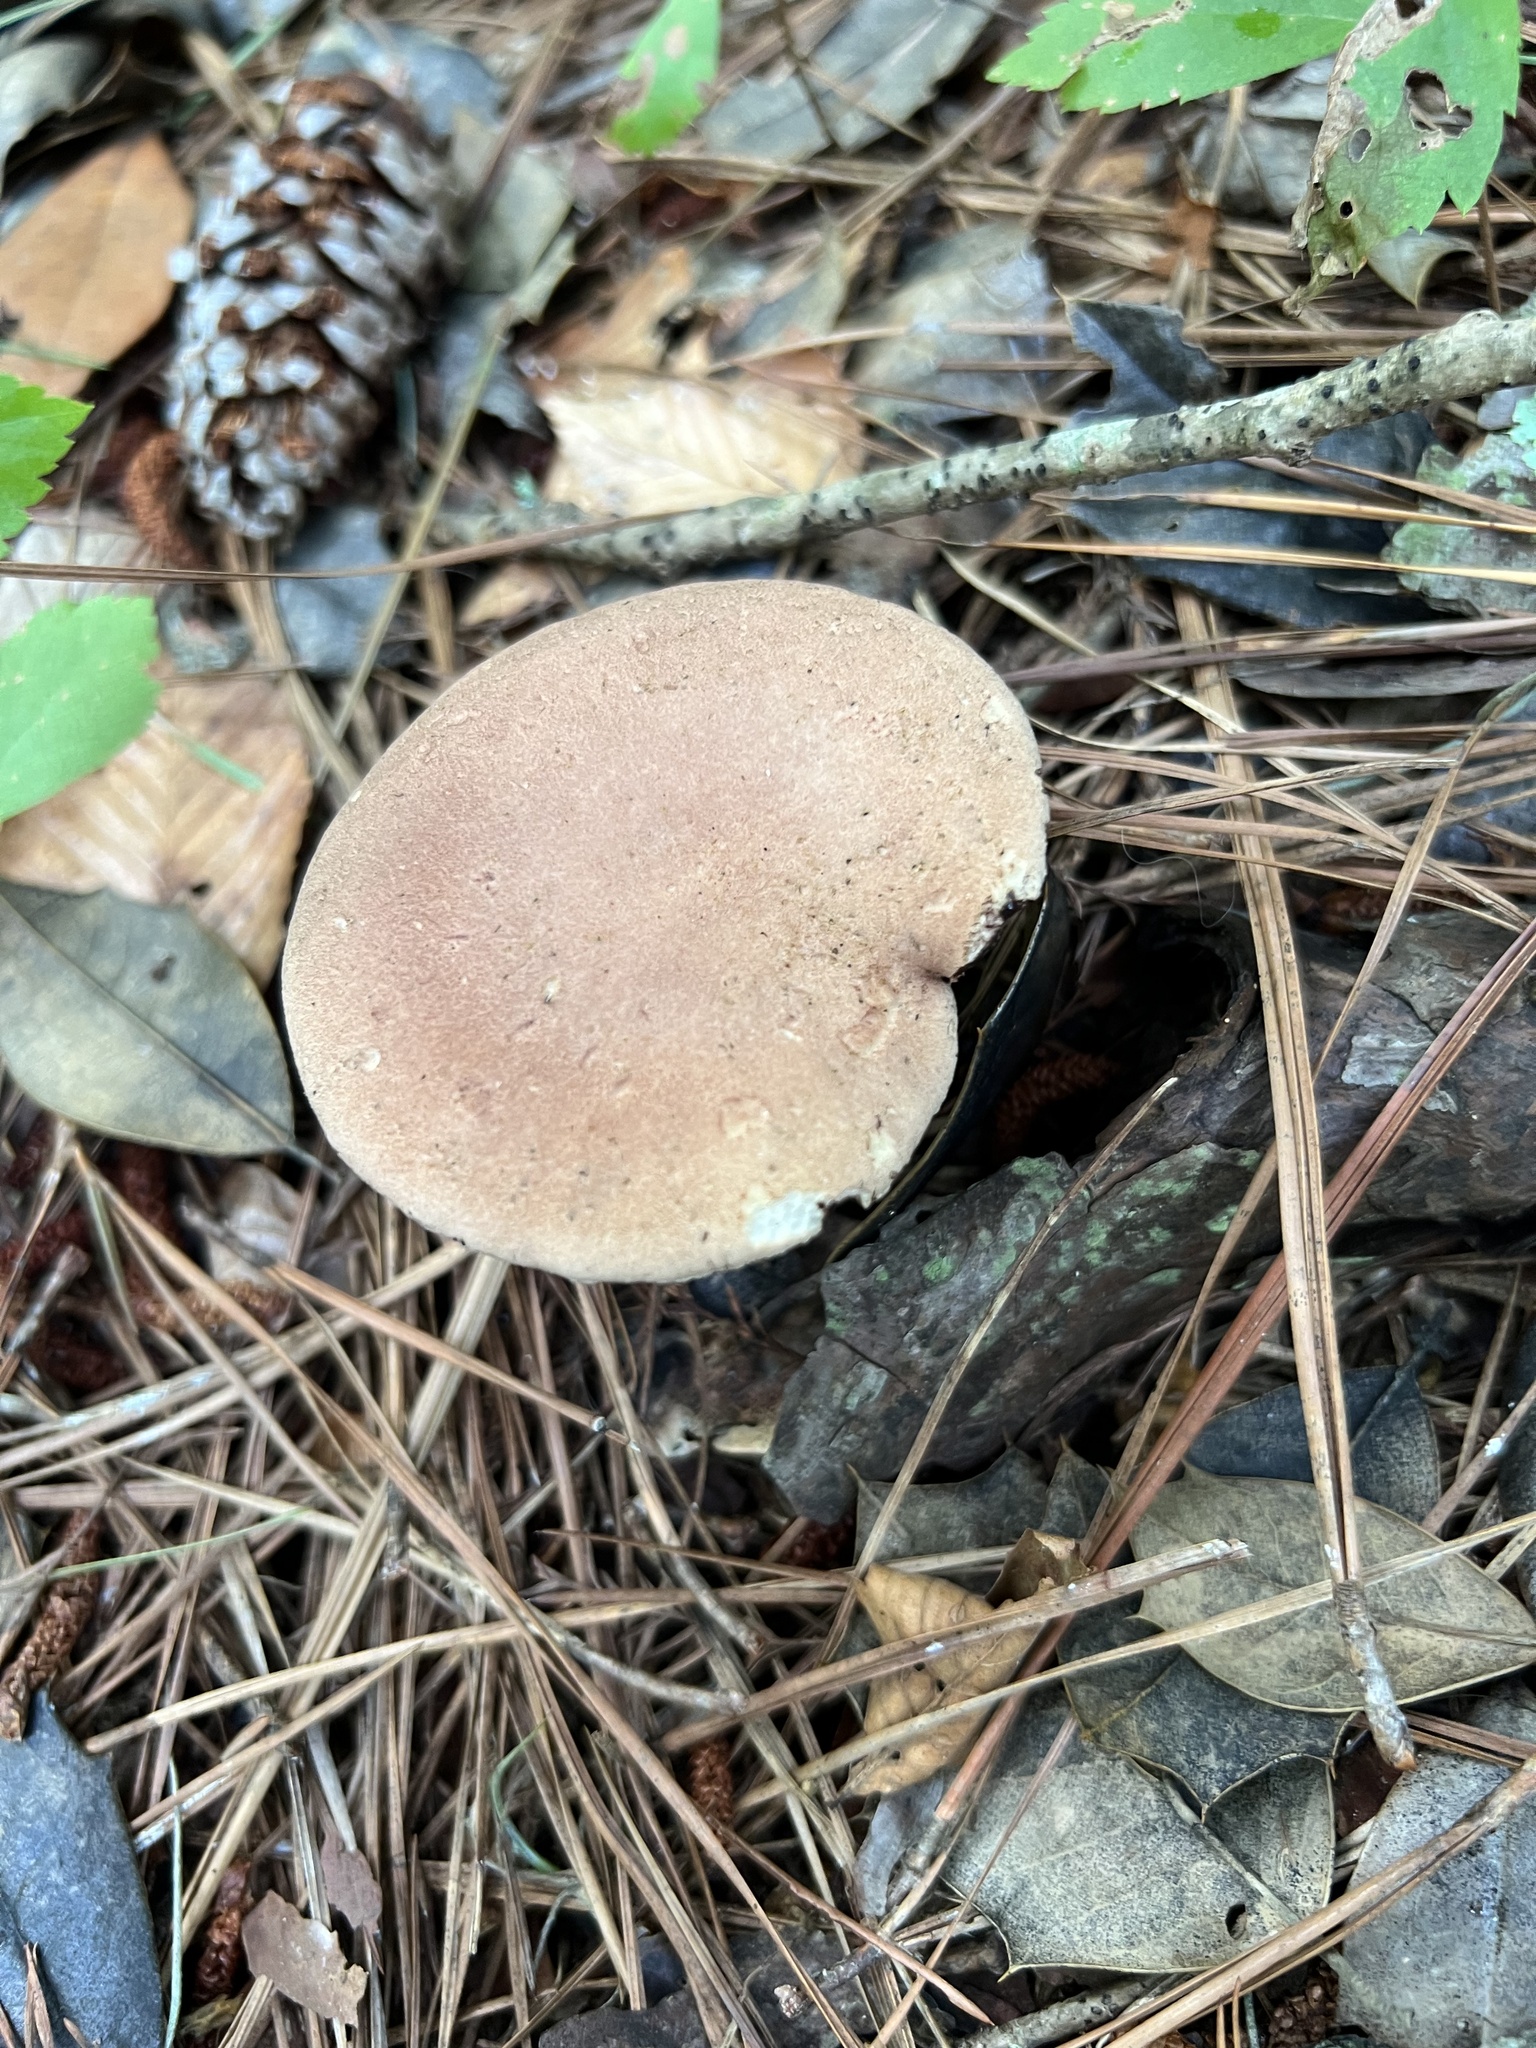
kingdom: Fungi
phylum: Basidiomycota
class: Agaricomycetes
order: Boletales
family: Boletaceae
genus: Phylloporopsis
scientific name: Phylloporopsis boletinoides
